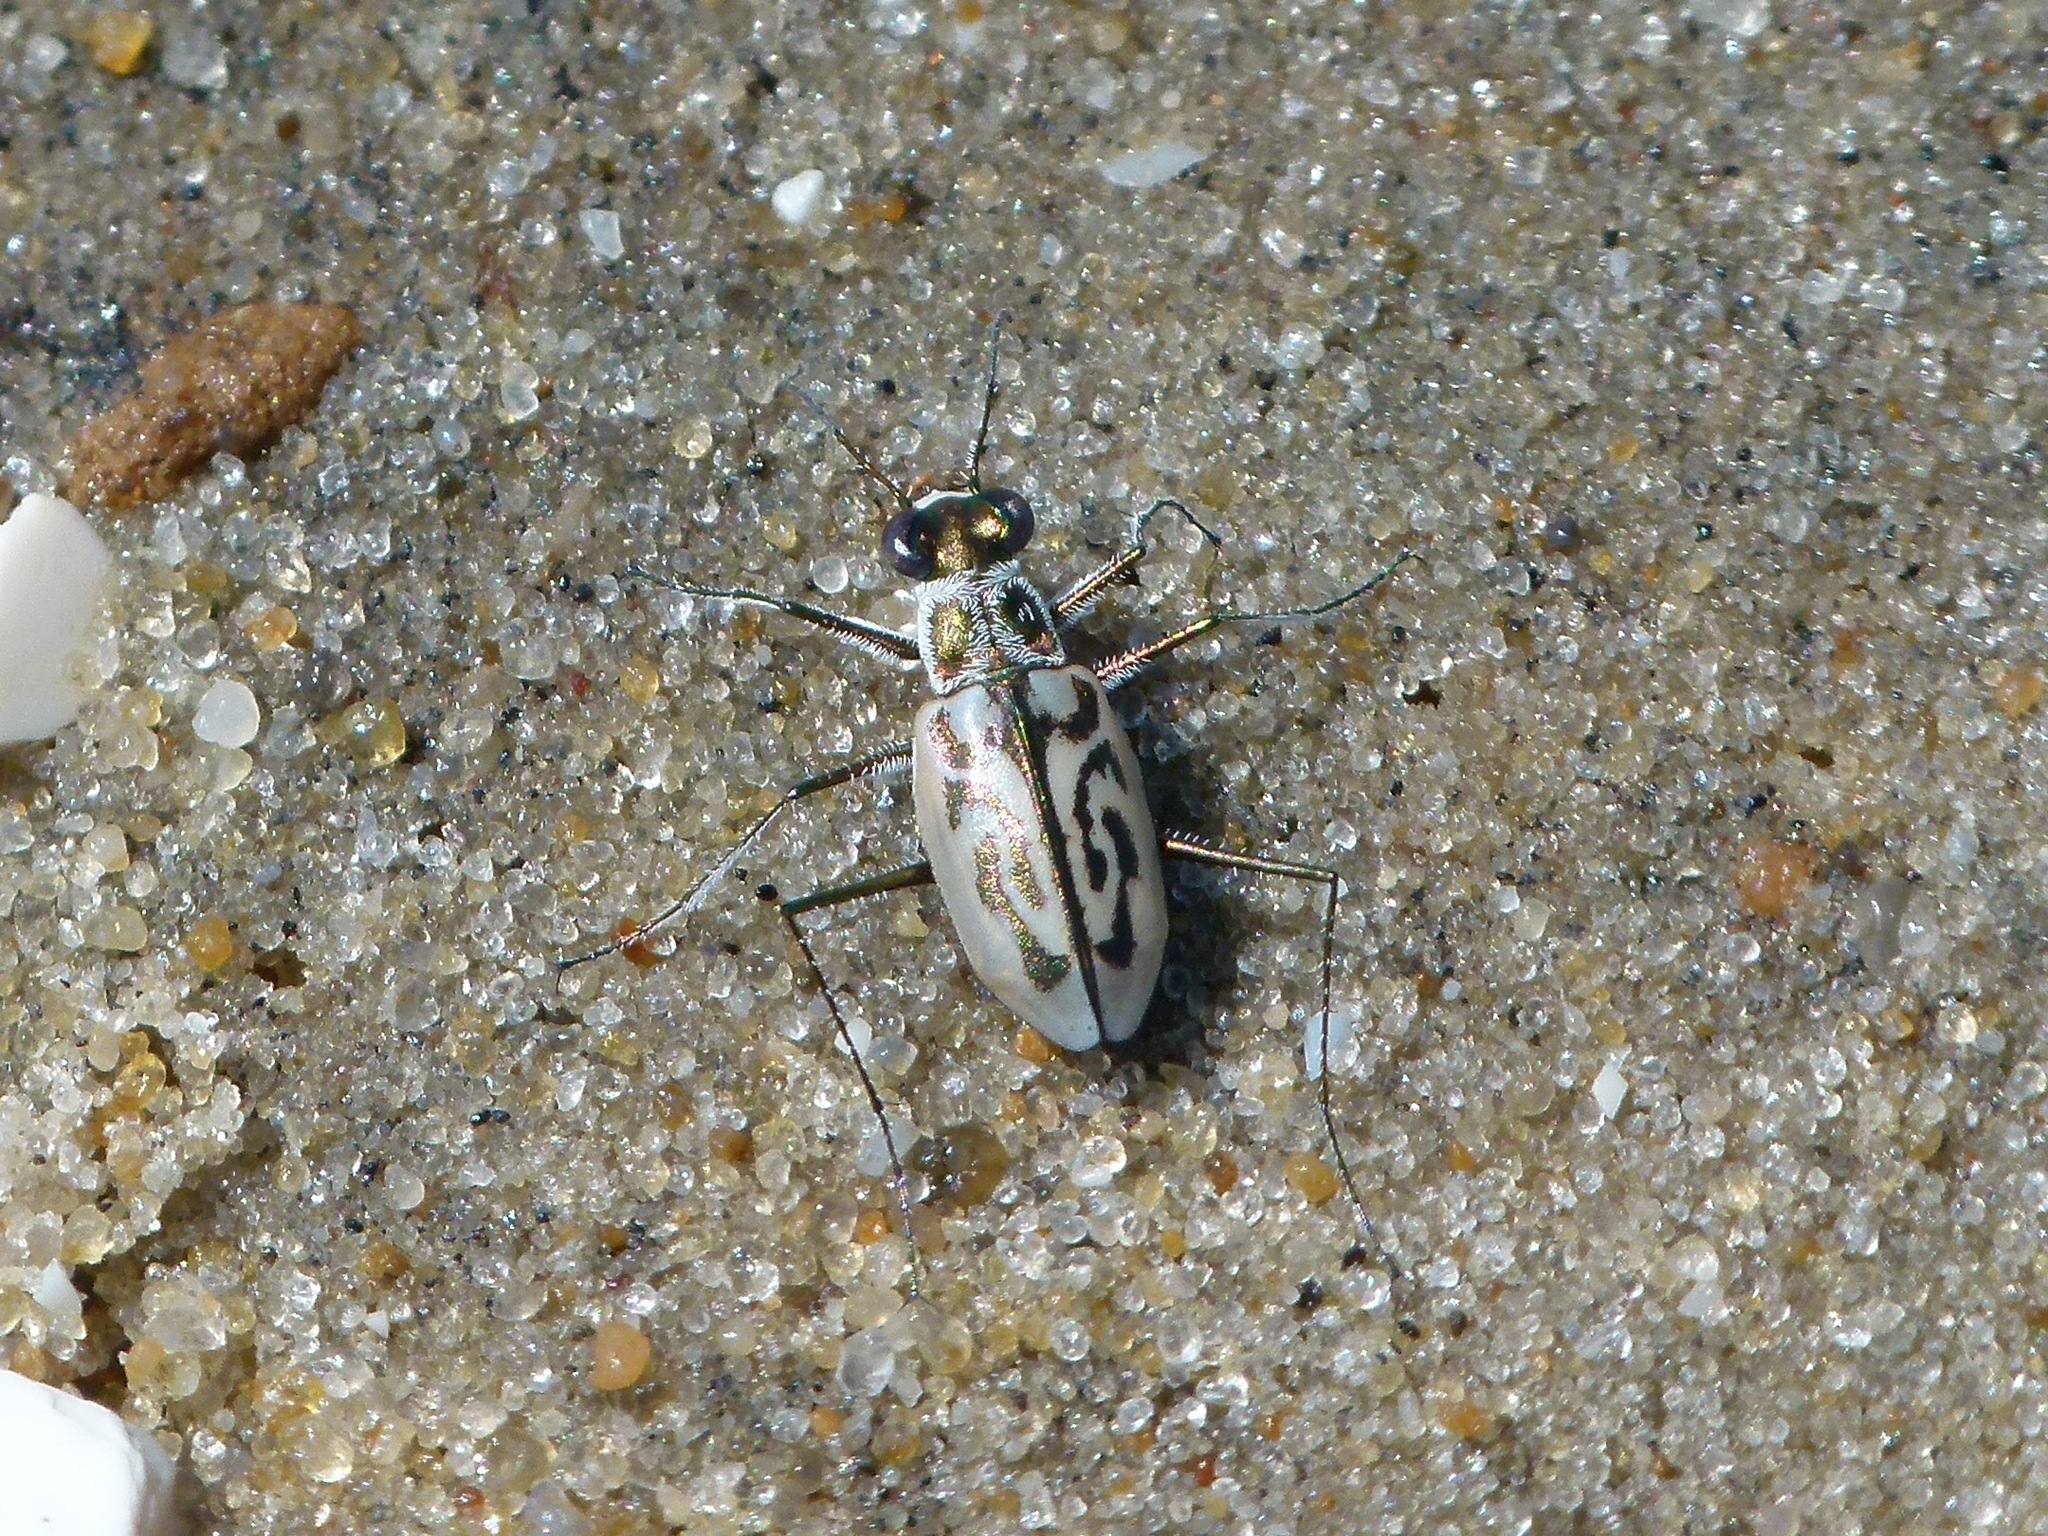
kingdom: Animalia
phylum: Arthropoda
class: Insecta
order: Coleoptera
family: Carabidae
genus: Habroscelimorpha
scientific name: Habroscelimorpha dorsalis
